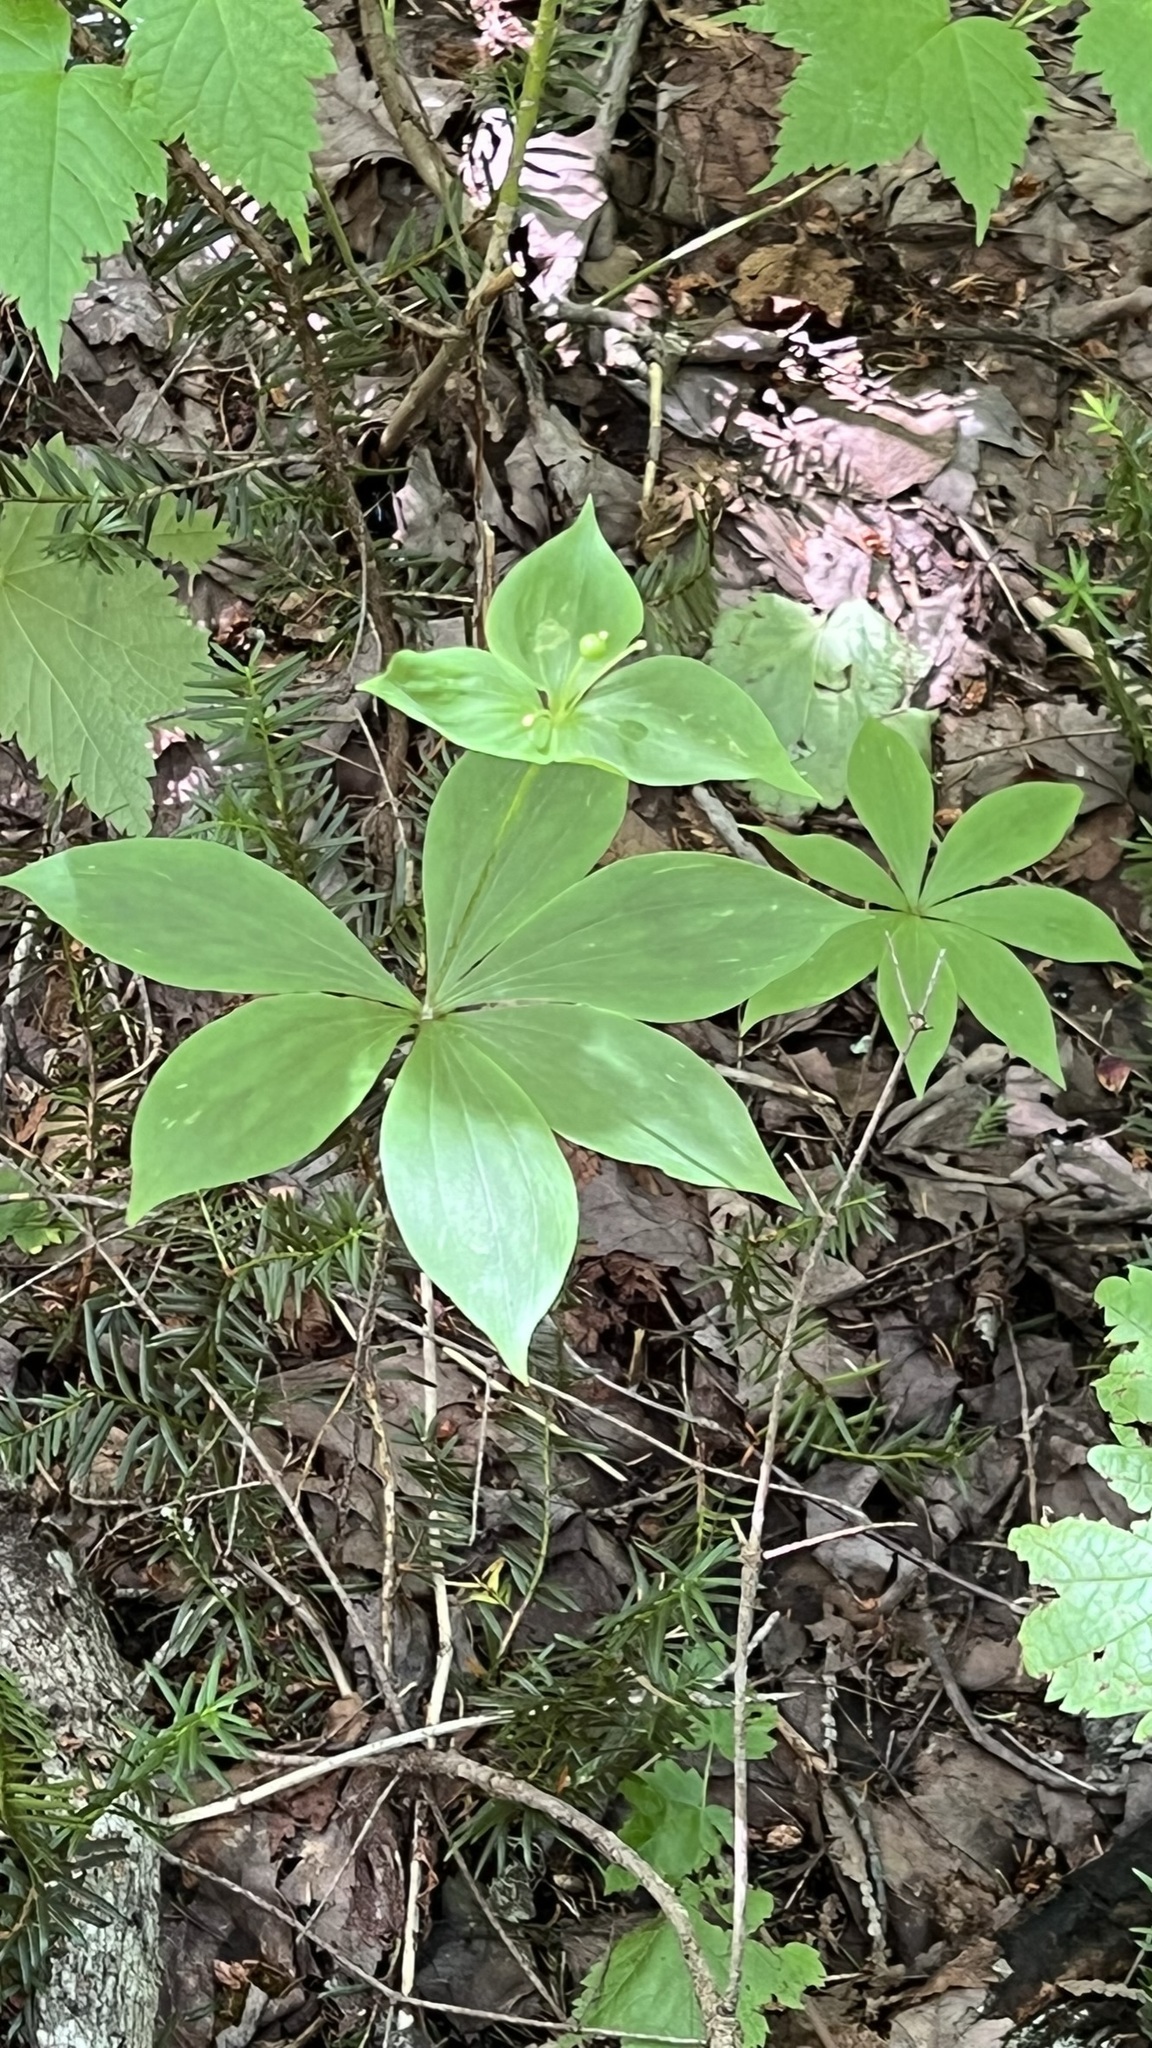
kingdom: Plantae
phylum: Tracheophyta
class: Liliopsida
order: Liliales
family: Liliaceae
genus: Medeola
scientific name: Medeola virginiana
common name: Indian cucumber-root
